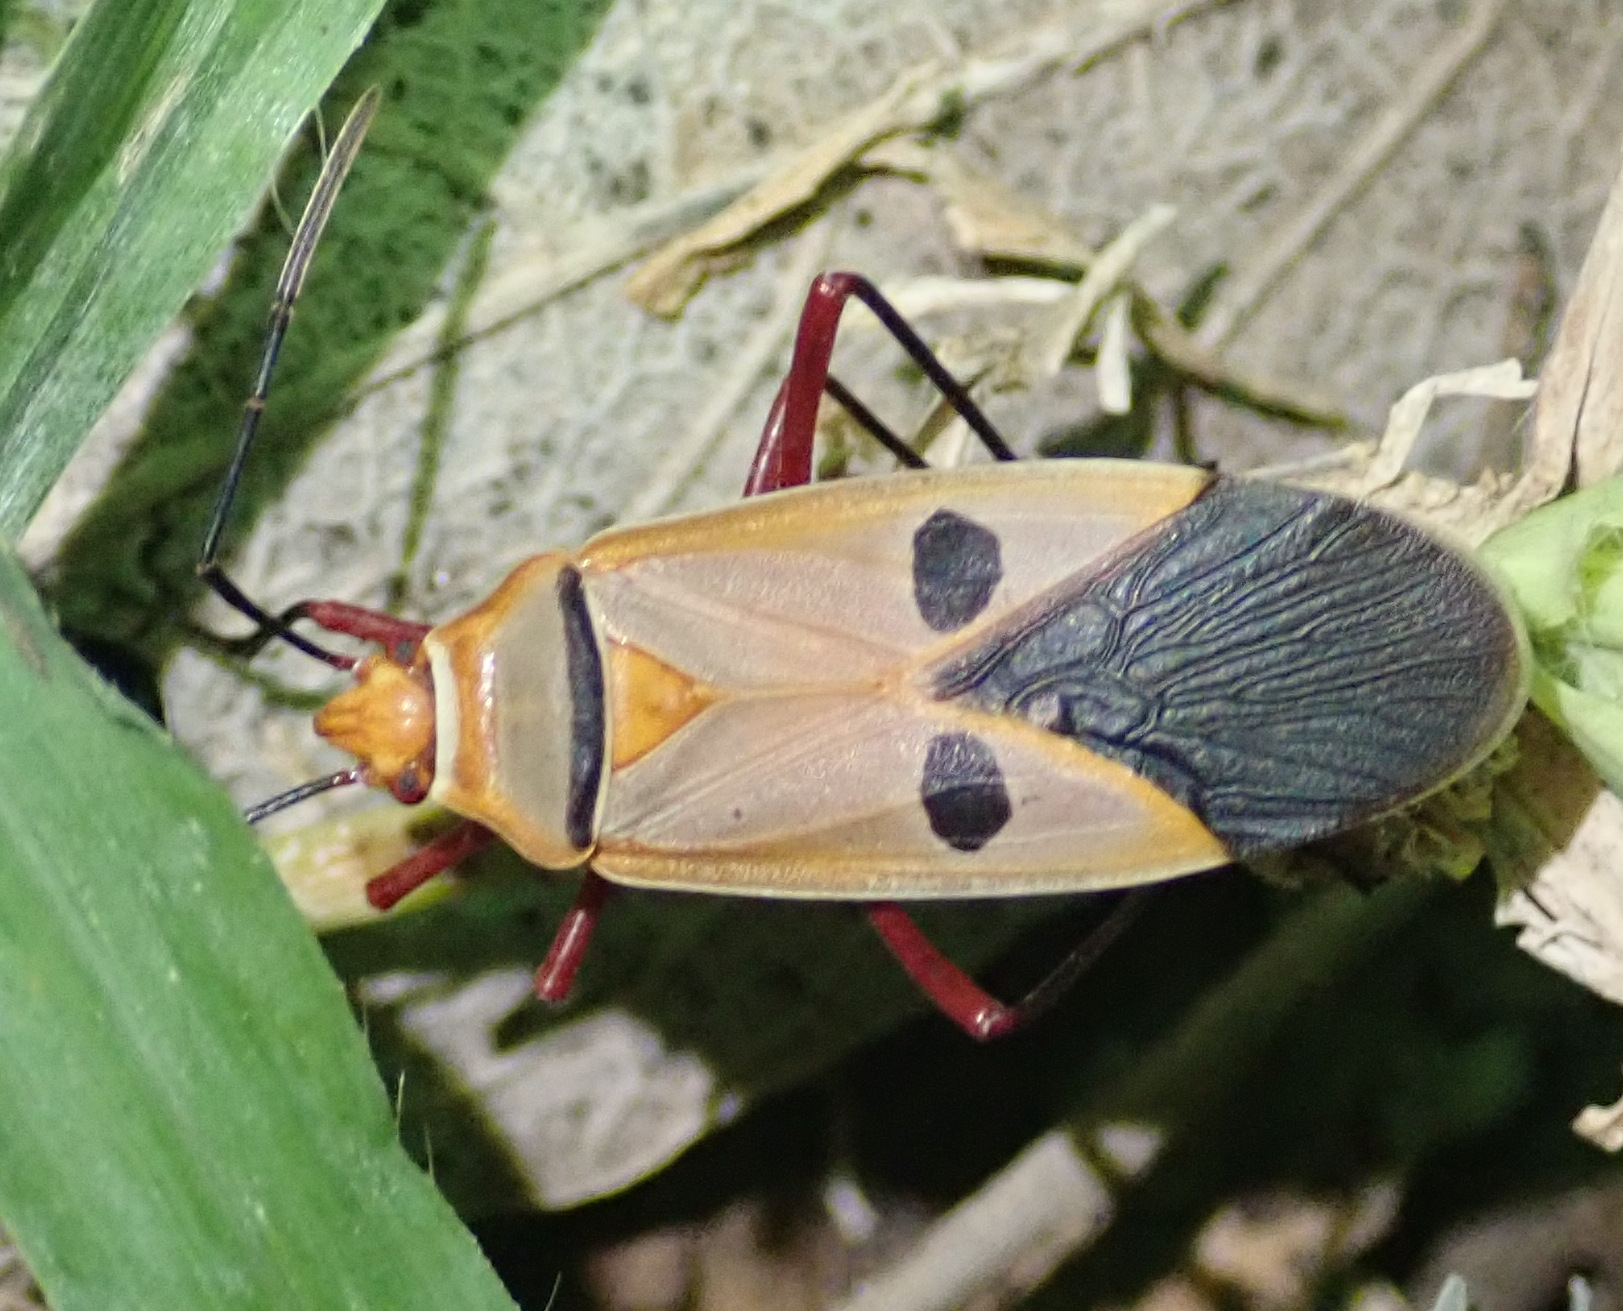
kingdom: Animalia
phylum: Arthropoda
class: Insecta
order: Hemiptera
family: Pyrrhocoridae
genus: Dysdercus
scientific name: Dysdercus superstitiosus
